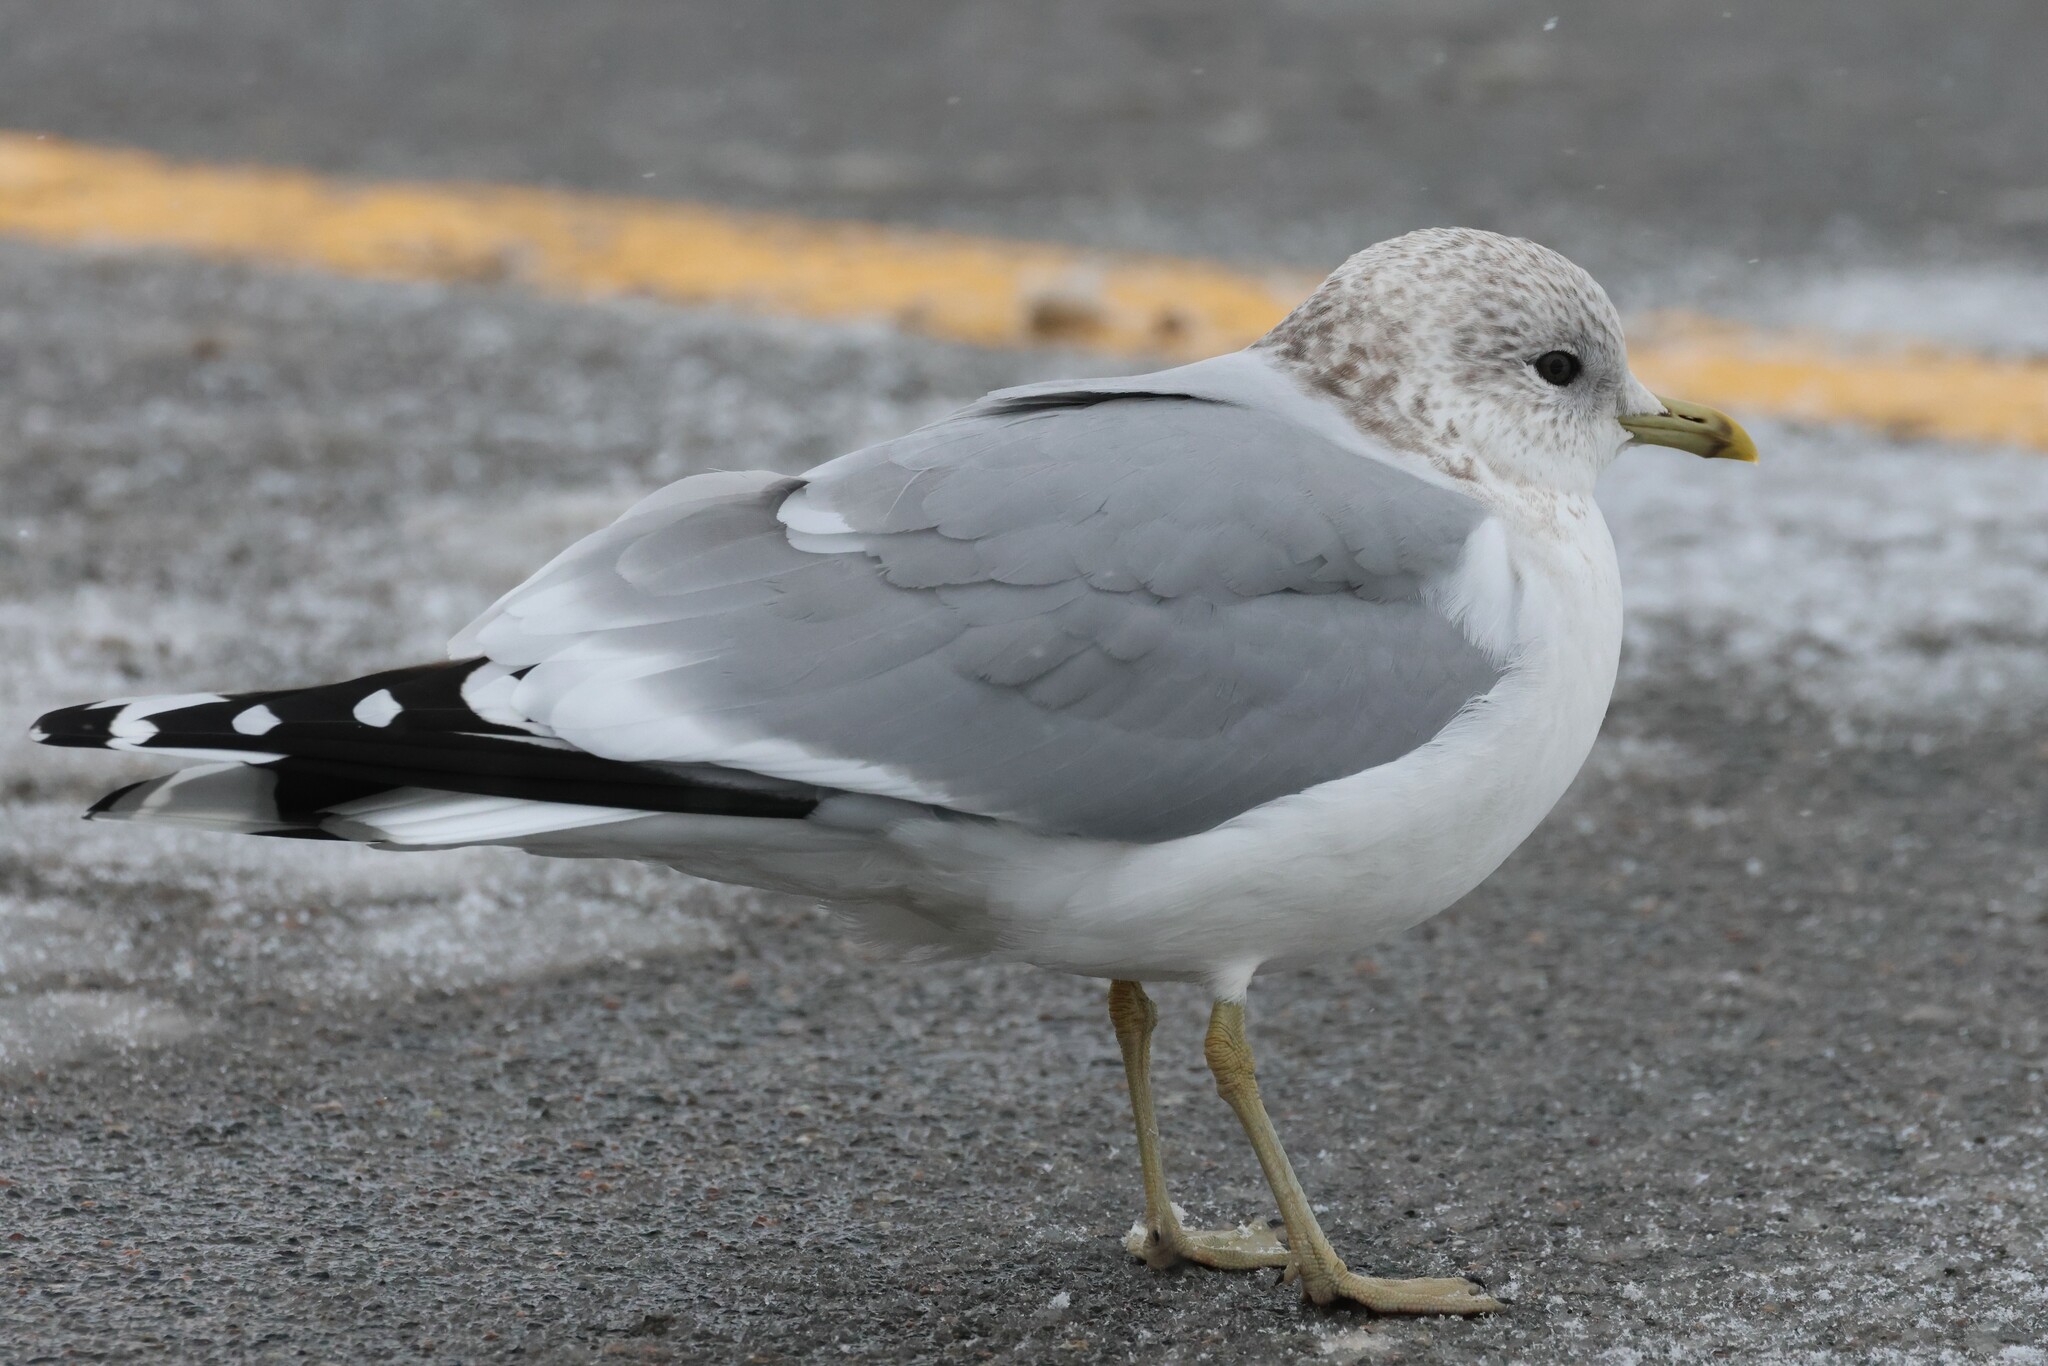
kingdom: Animalia
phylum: Chordata
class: Aves
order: Charadriiformes
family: Laridae
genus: Larus
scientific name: Larus canus
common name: Mew gull
